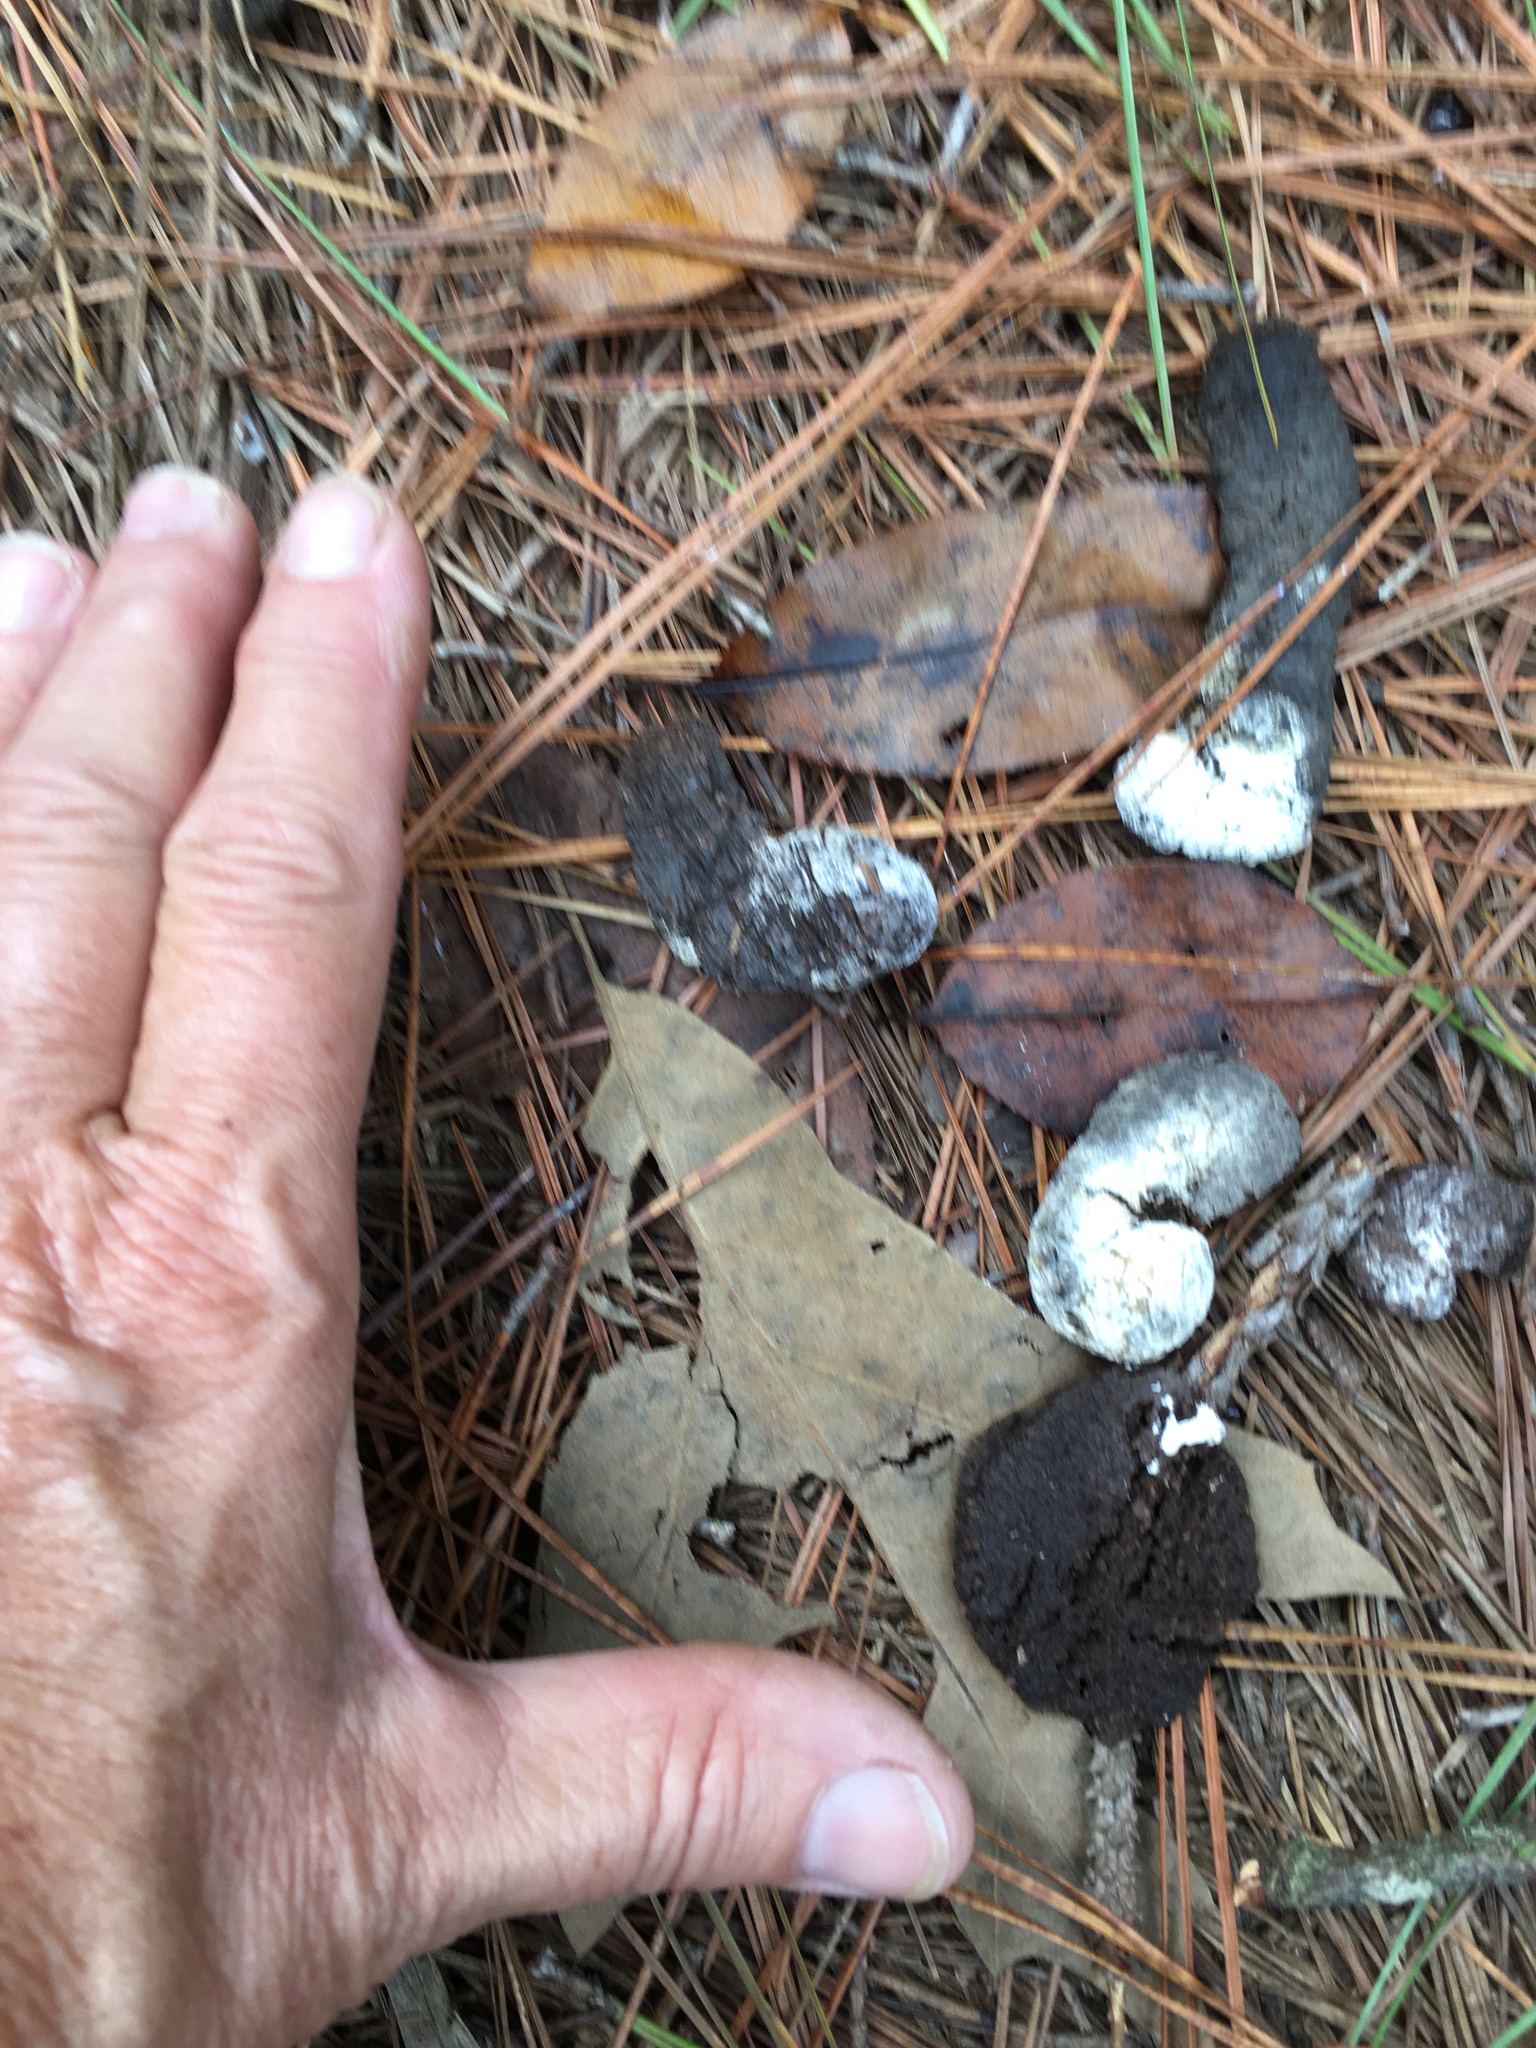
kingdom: Animalia
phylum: Chordata
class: Aves
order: Galliformes
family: Phasianidae
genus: Meleagris
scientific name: Meleagris gallopavo
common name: Wild turkey
